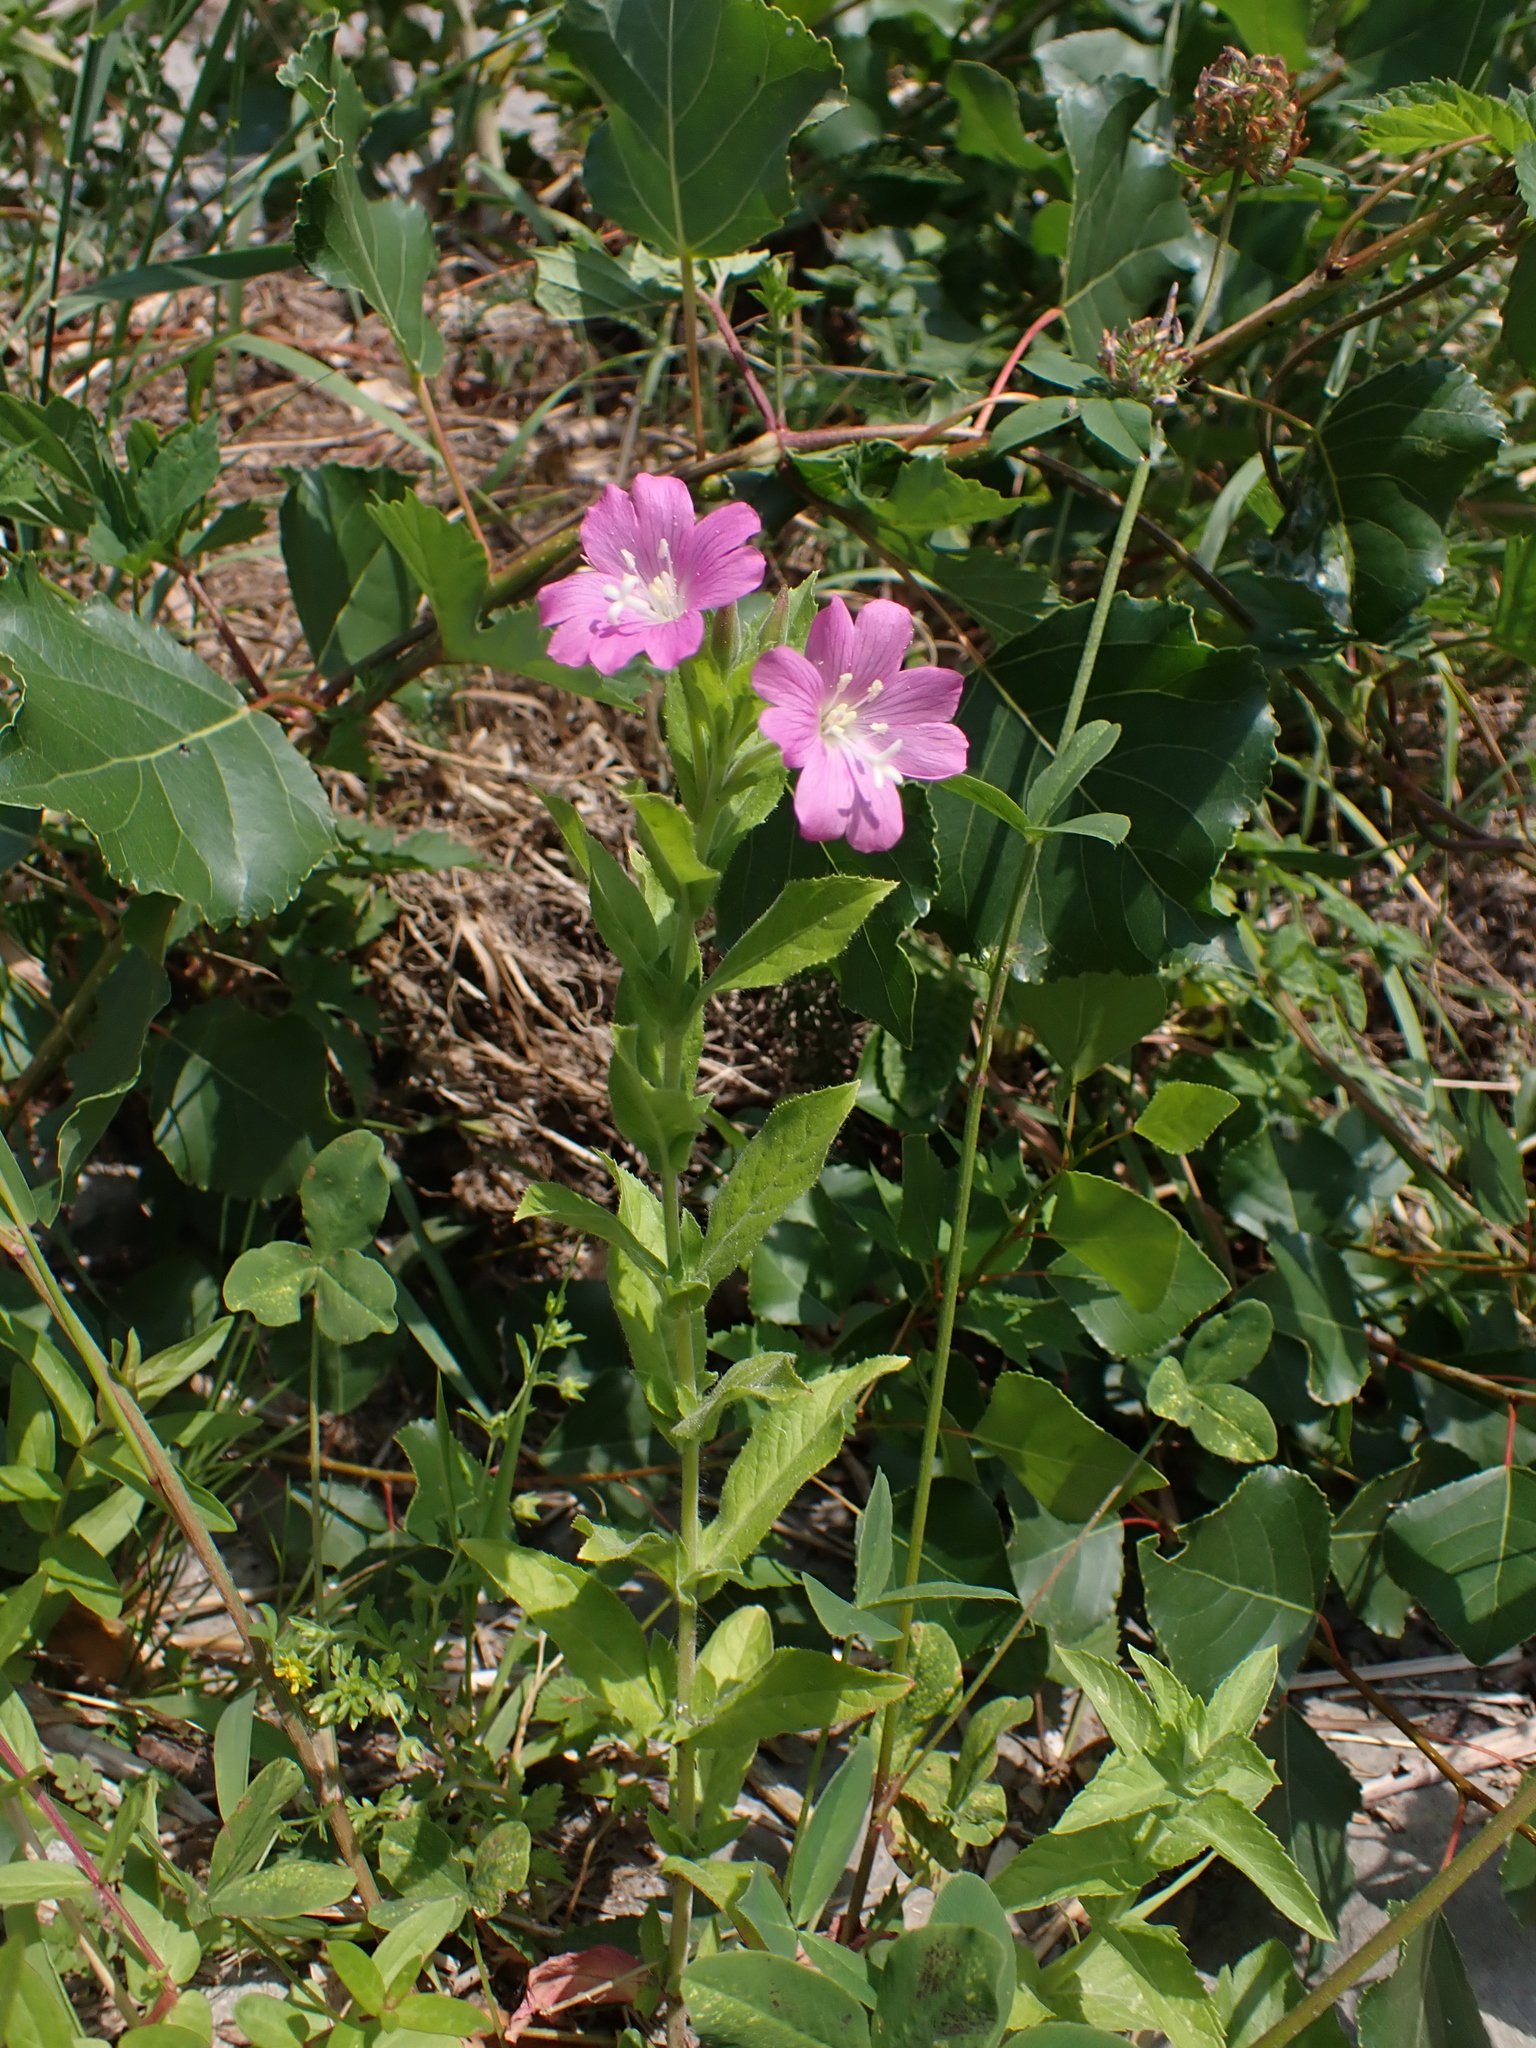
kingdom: Plantae
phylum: Tracheophyta
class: Magnoliopsida
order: Myrtales
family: Onagraceae
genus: Epilobium
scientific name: Epilobium hirsutum
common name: Great willowherb
